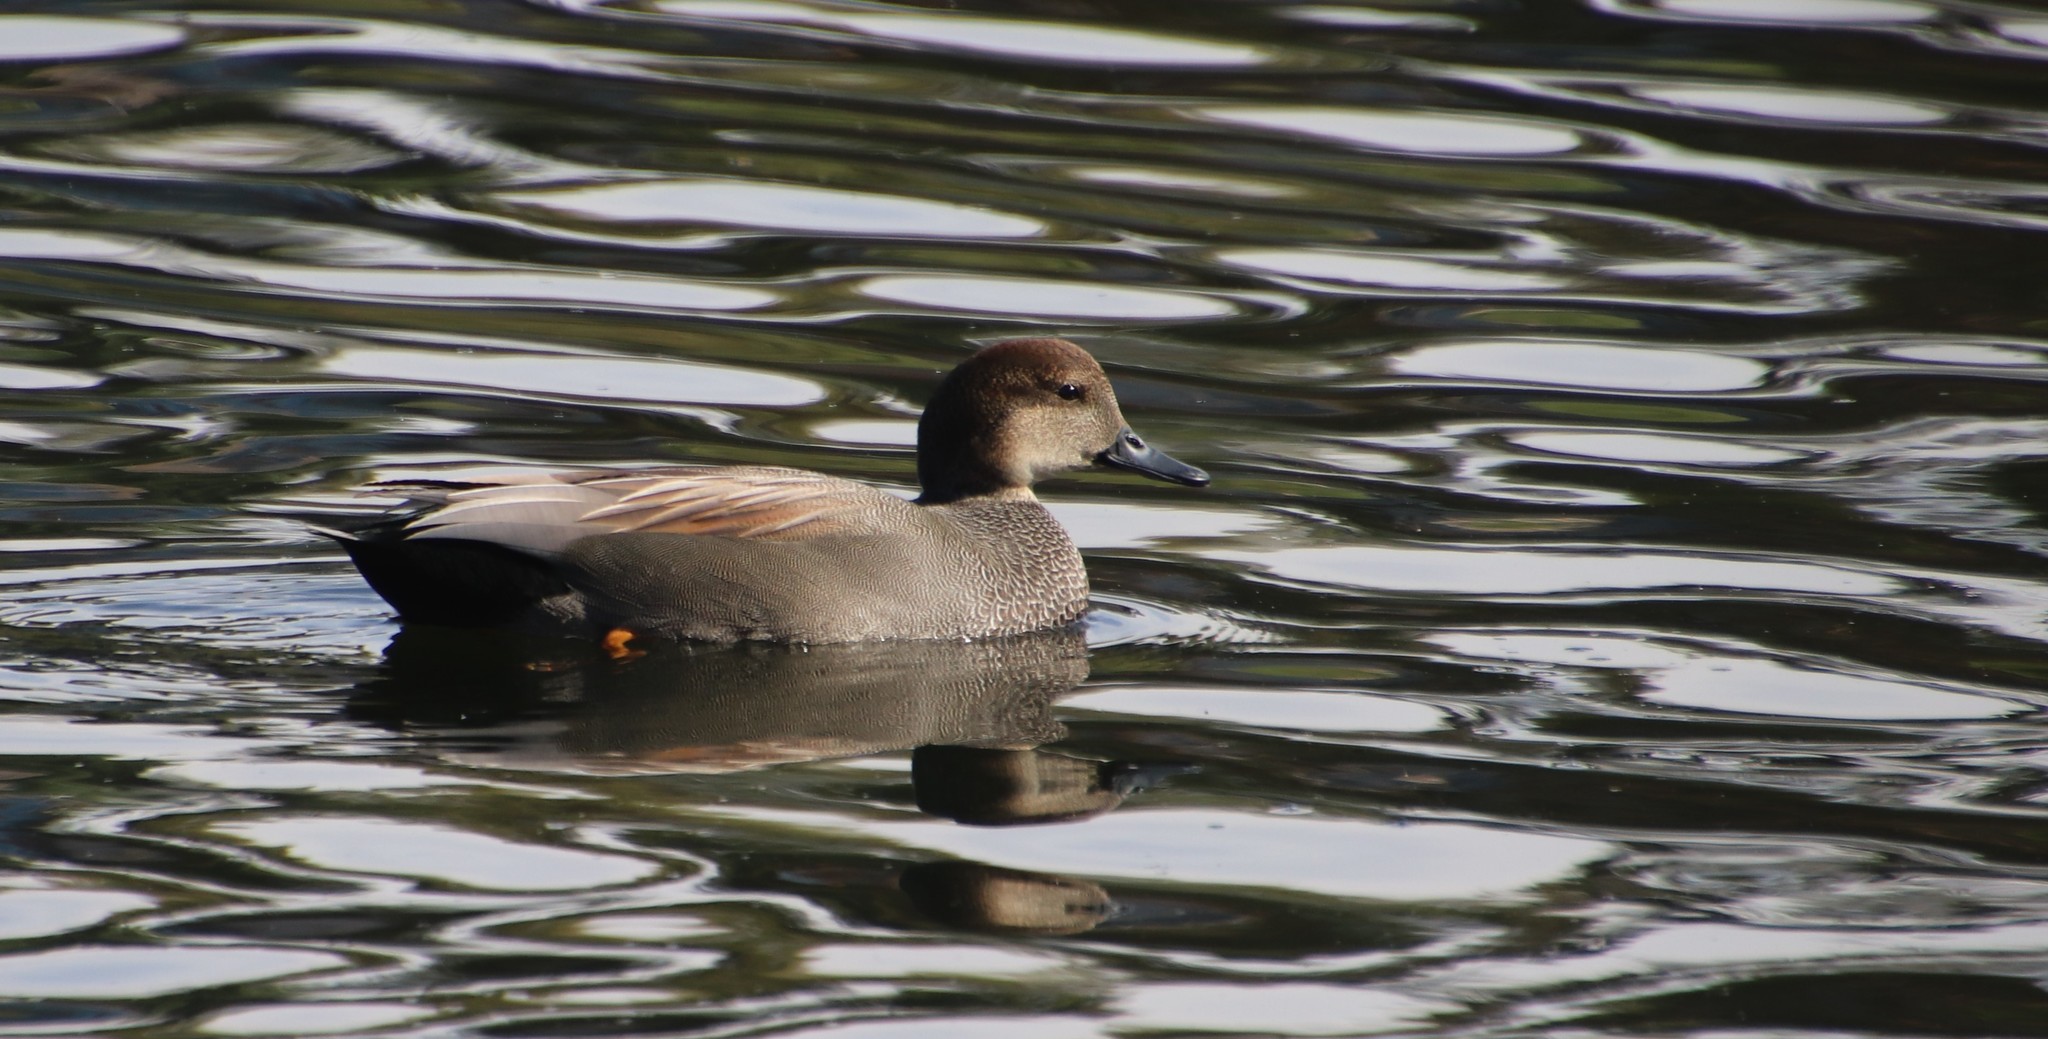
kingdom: Animalia
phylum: Chordata
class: Aves
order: Anseriformes
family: Anatidae
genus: Mareca
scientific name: Mareca strepera
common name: Gadwall
